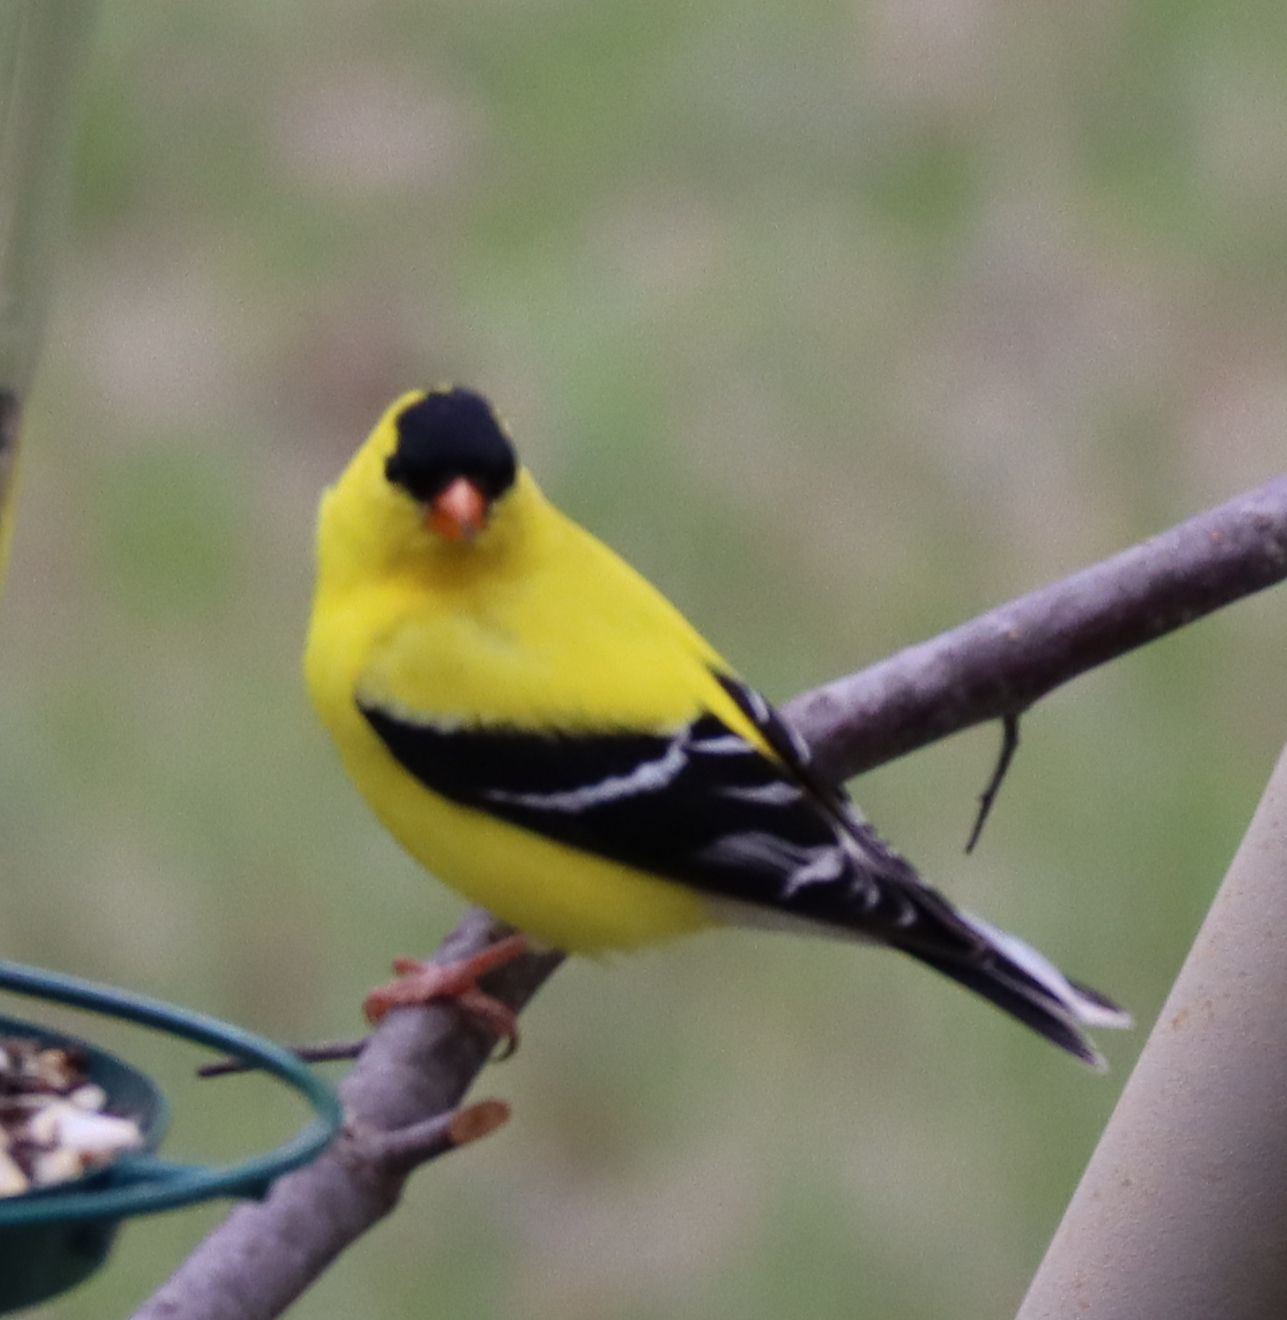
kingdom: Animalia
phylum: Chordata
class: Aves
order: Passeriformes
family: Fringillidae
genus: Spinus
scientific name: Spinus tristis
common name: American goldfinch
